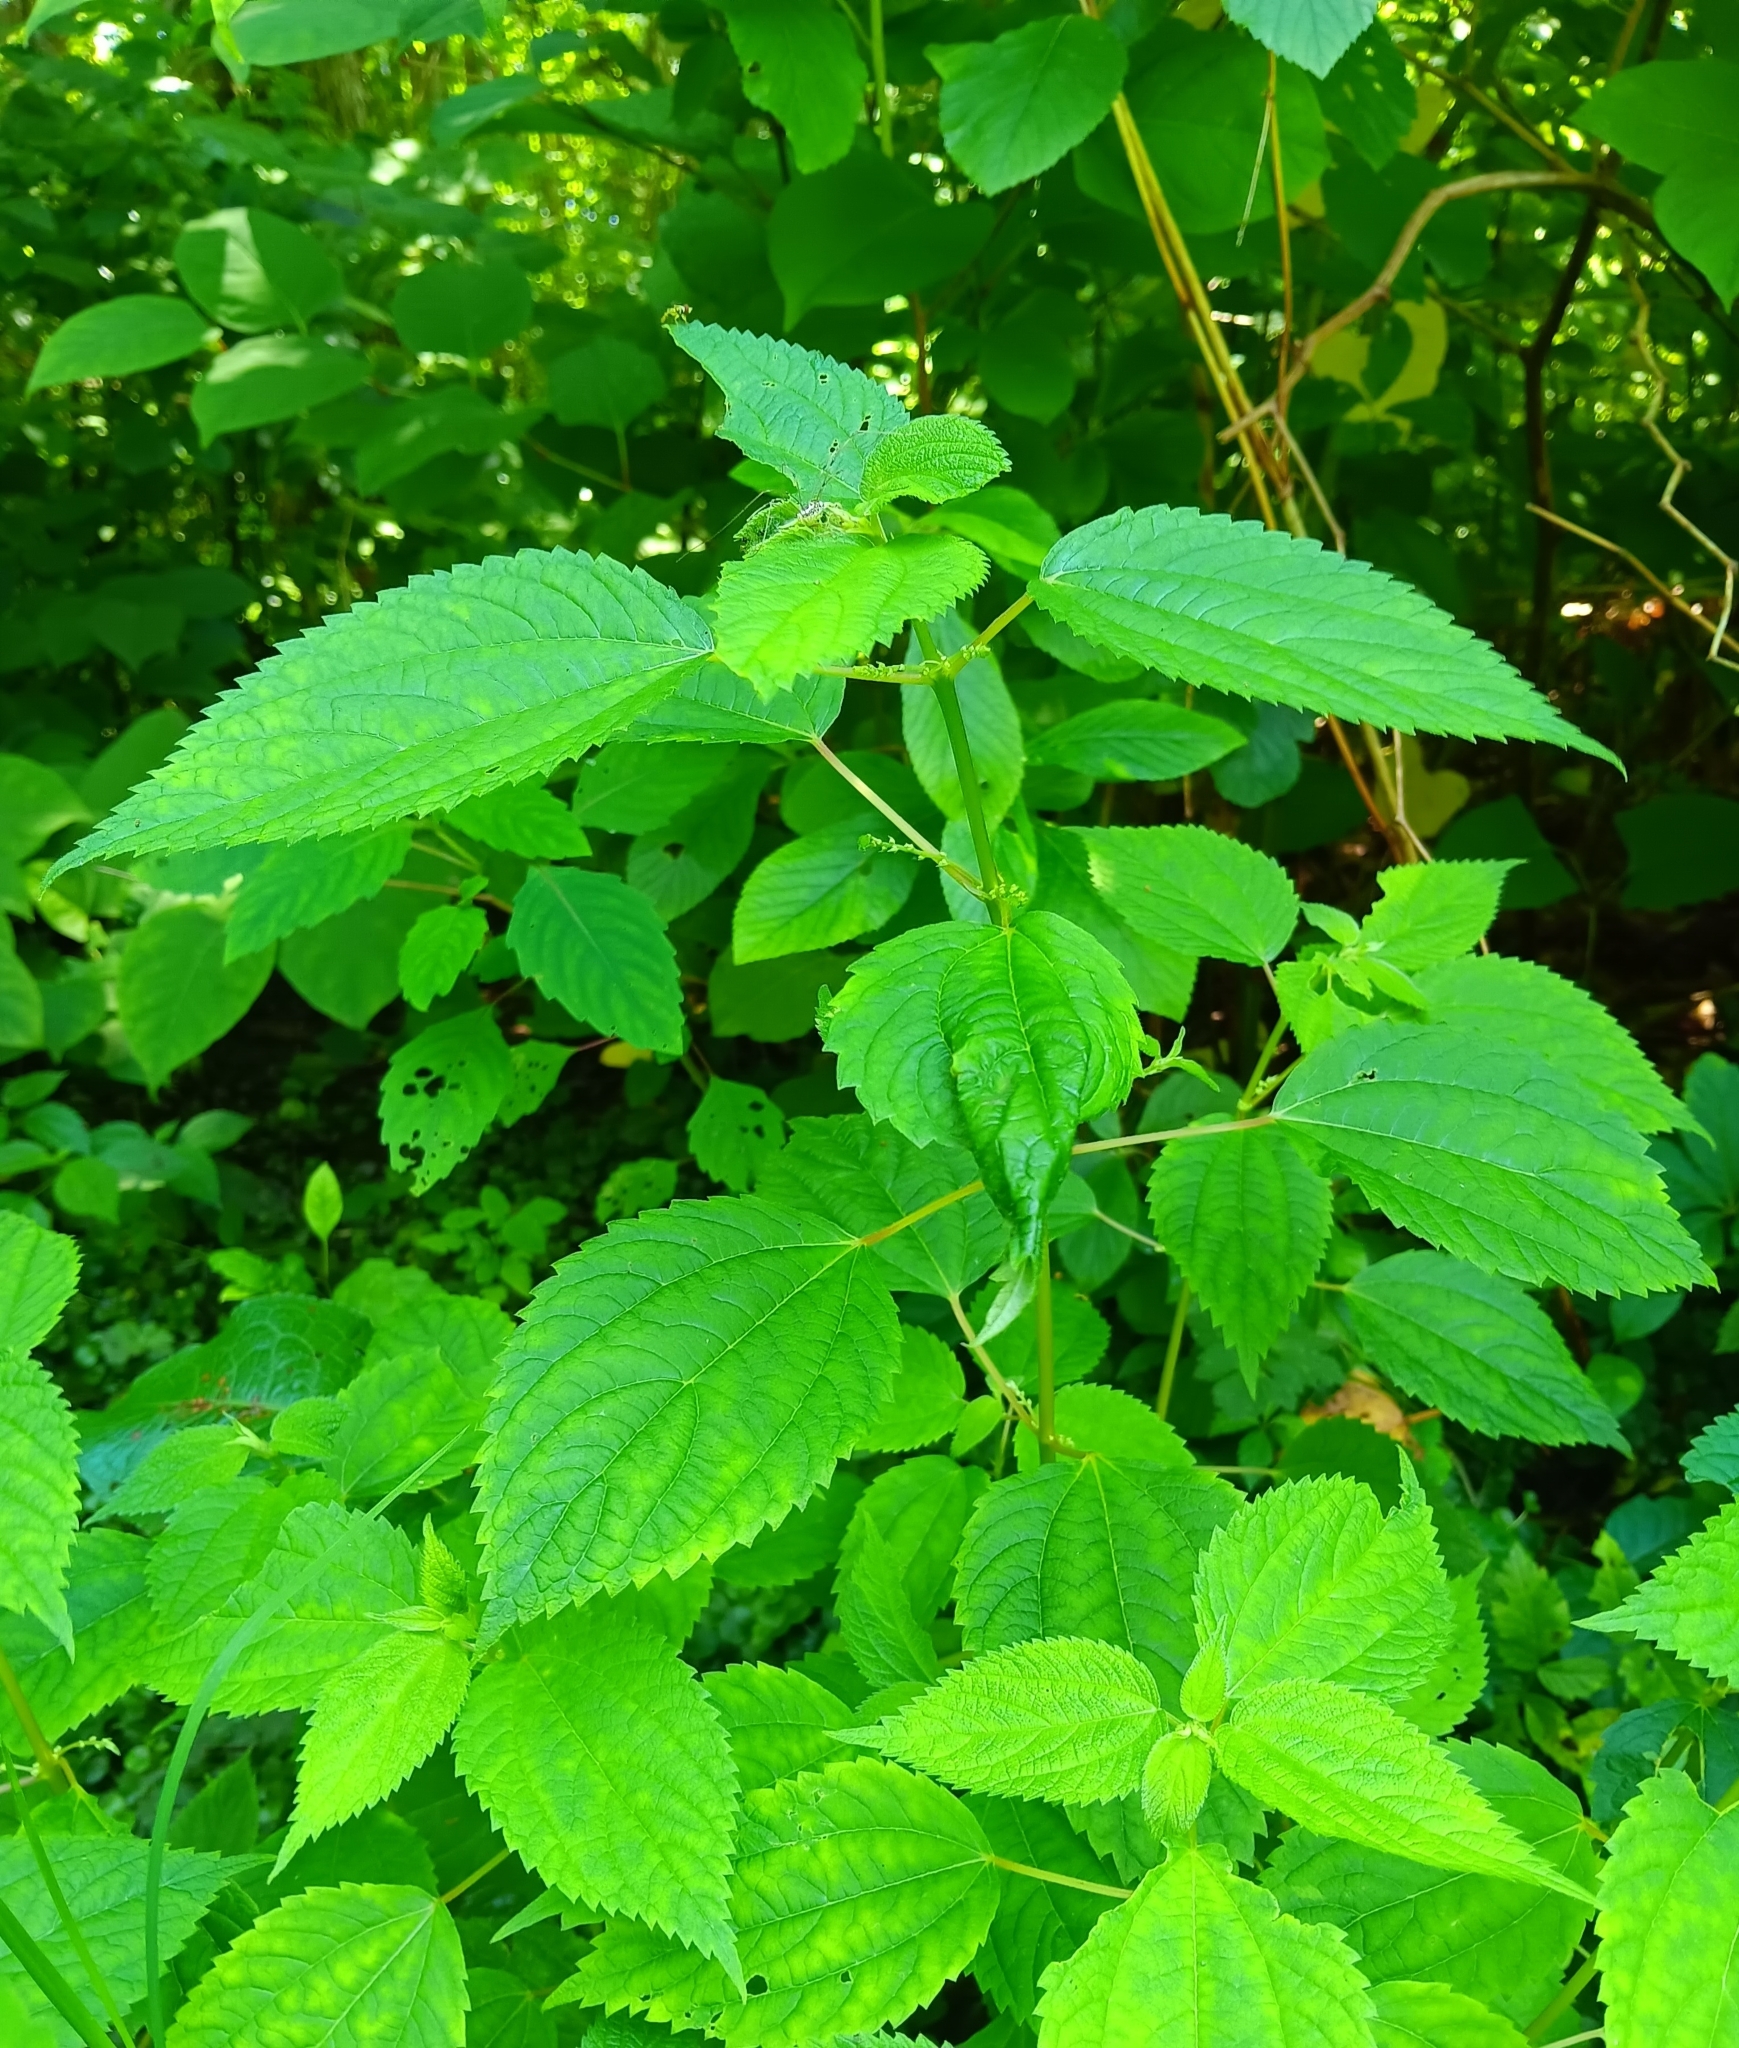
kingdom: Plantae
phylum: Tracheophyta
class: Magnoliopsida
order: Rosales
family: Urticaceae
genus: Boehmeria
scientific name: Boehmeria cylindrica
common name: Bog-hemp
